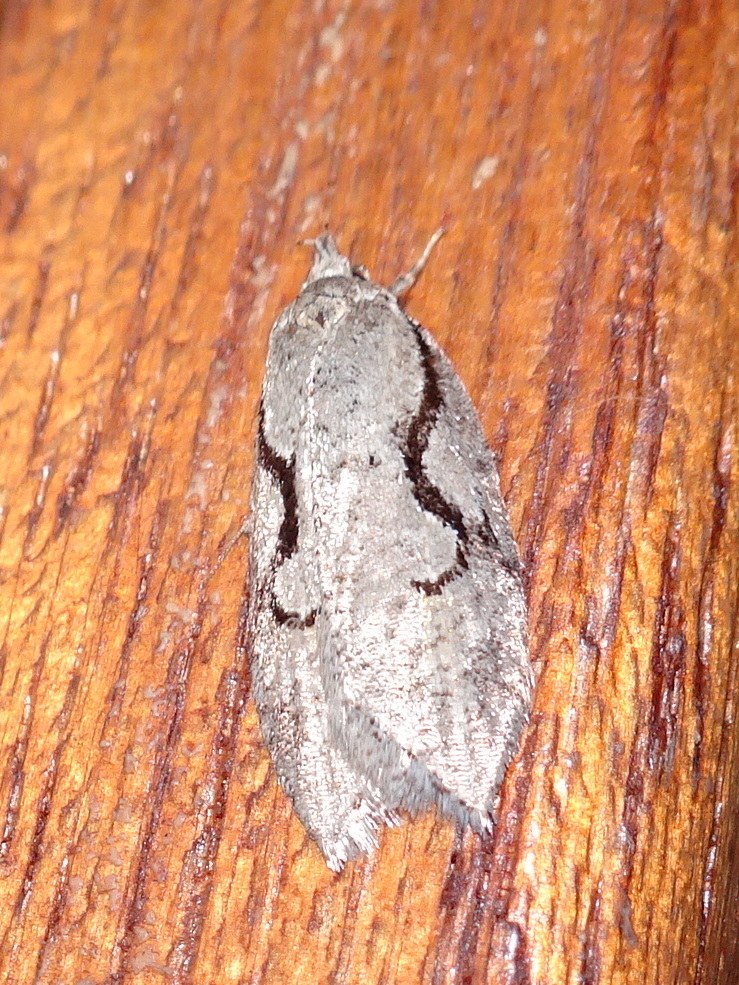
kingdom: Animalia
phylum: Arthropoda
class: Insecta
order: Lepidoptera
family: Depressariidae
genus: Semioscopis
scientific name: Semioscopis packardella
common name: Packard's concealer moth
